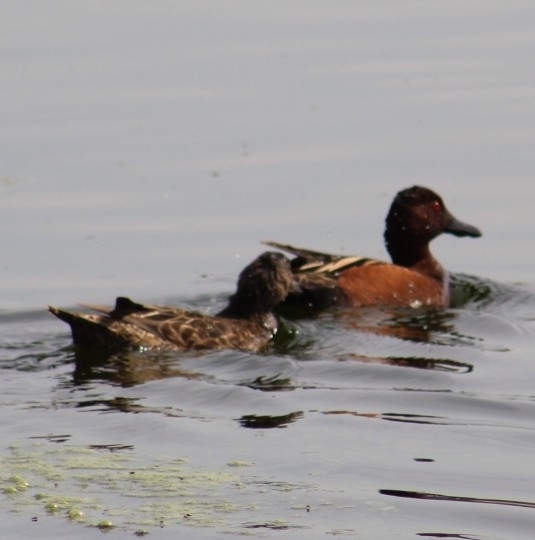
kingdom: Animalia
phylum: Chordata
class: Aves
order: Anseriformes
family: Anatidae
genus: Spatula
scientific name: Spatula cyanoptera
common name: Cinnamon teal
